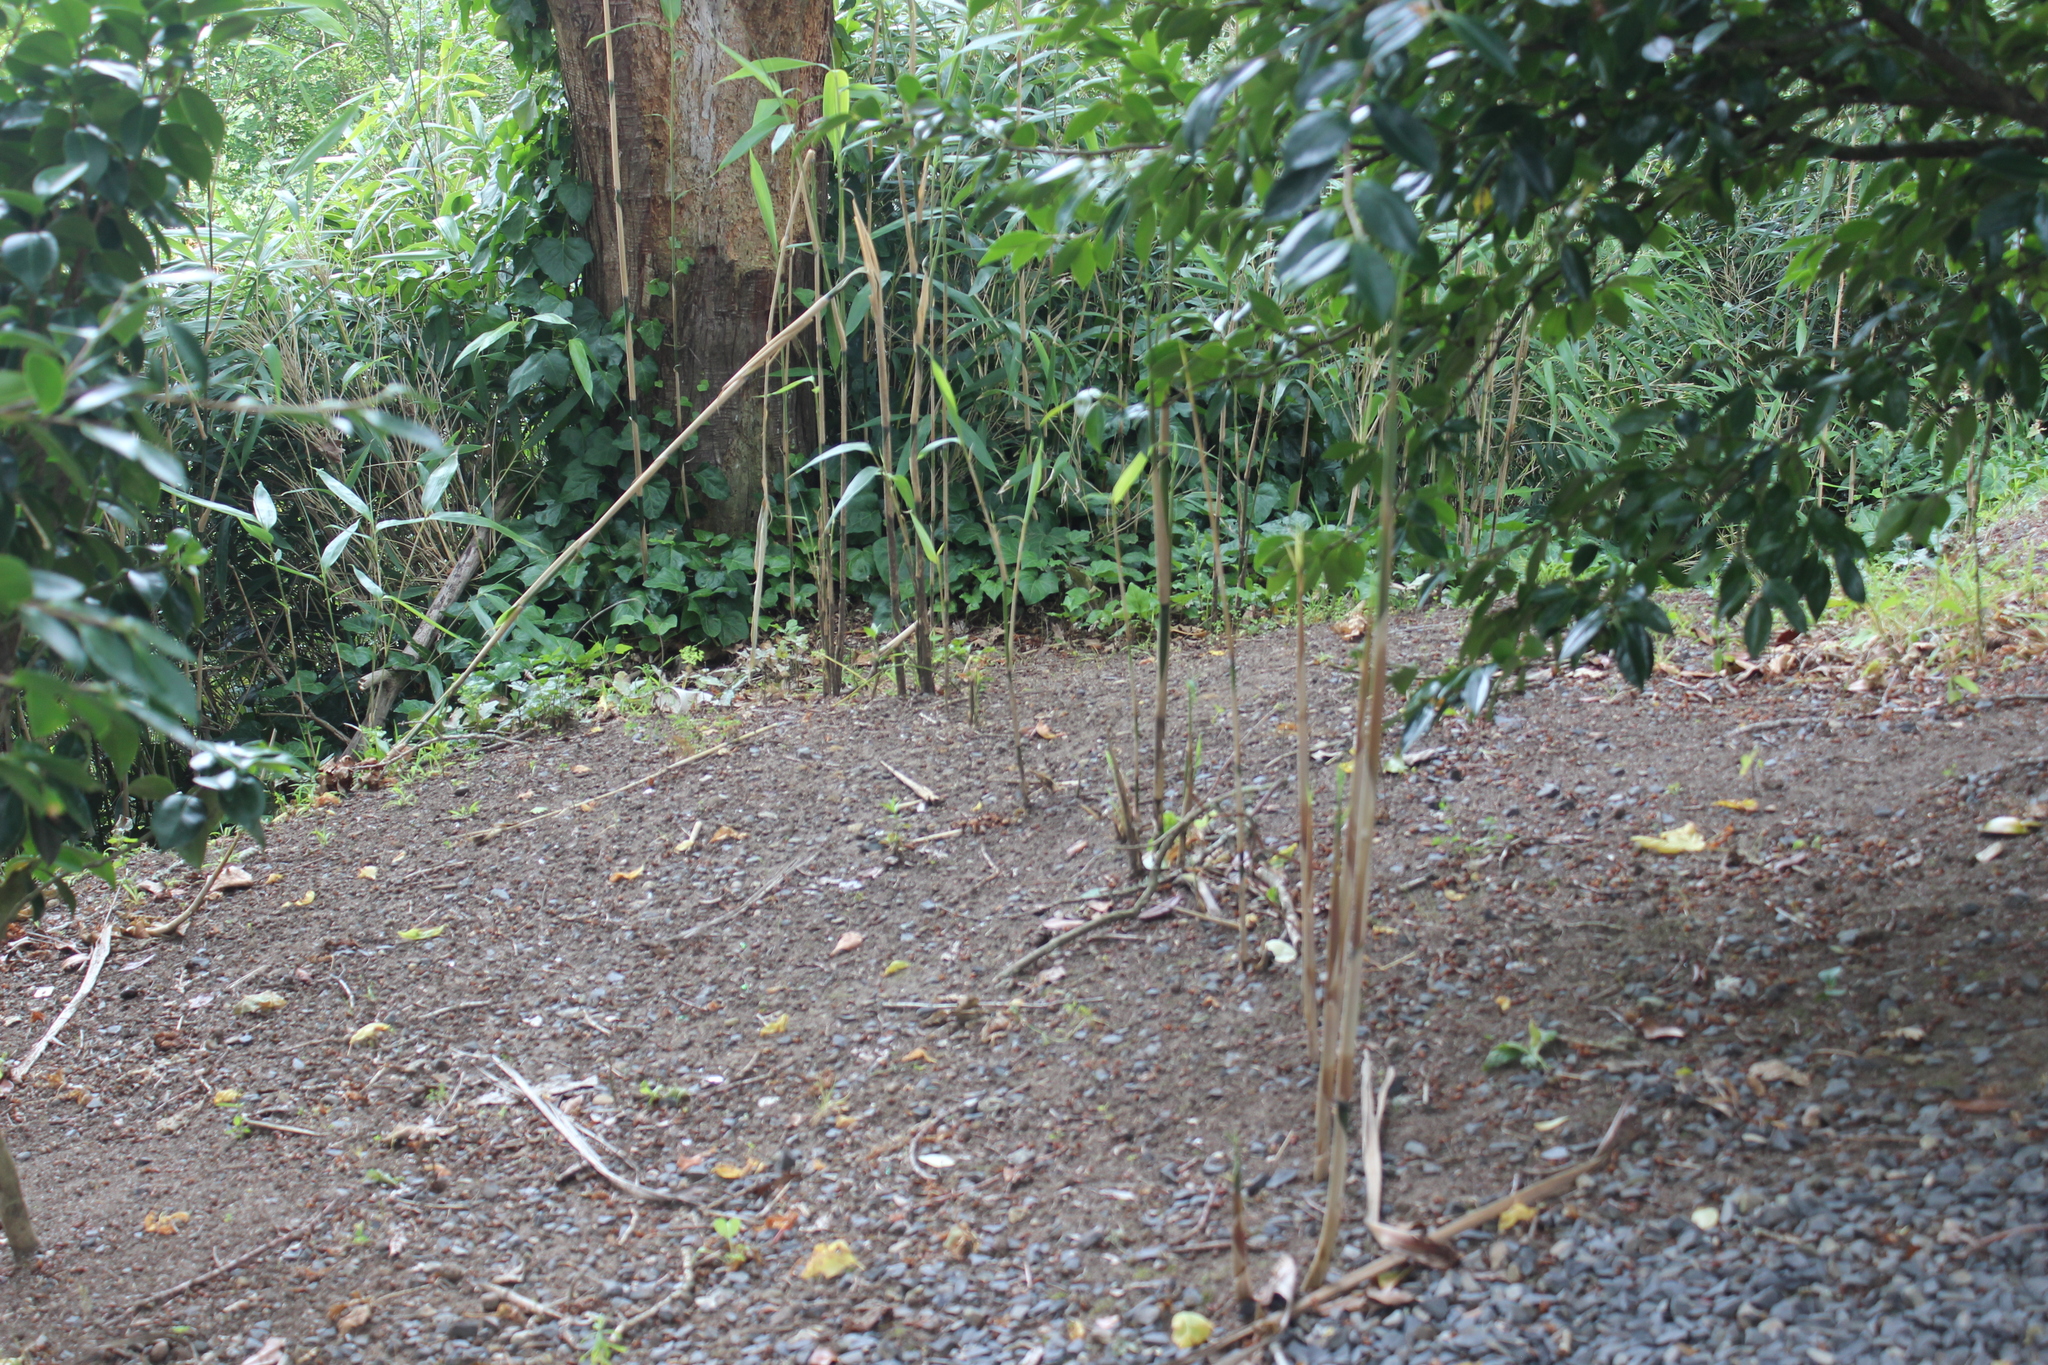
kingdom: Plantae
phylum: Tracheophyta
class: Liliopsida
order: Poales
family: Poaceae
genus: Pseudosasa
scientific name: Pseudosasa japonica
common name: Arrow bamboo
